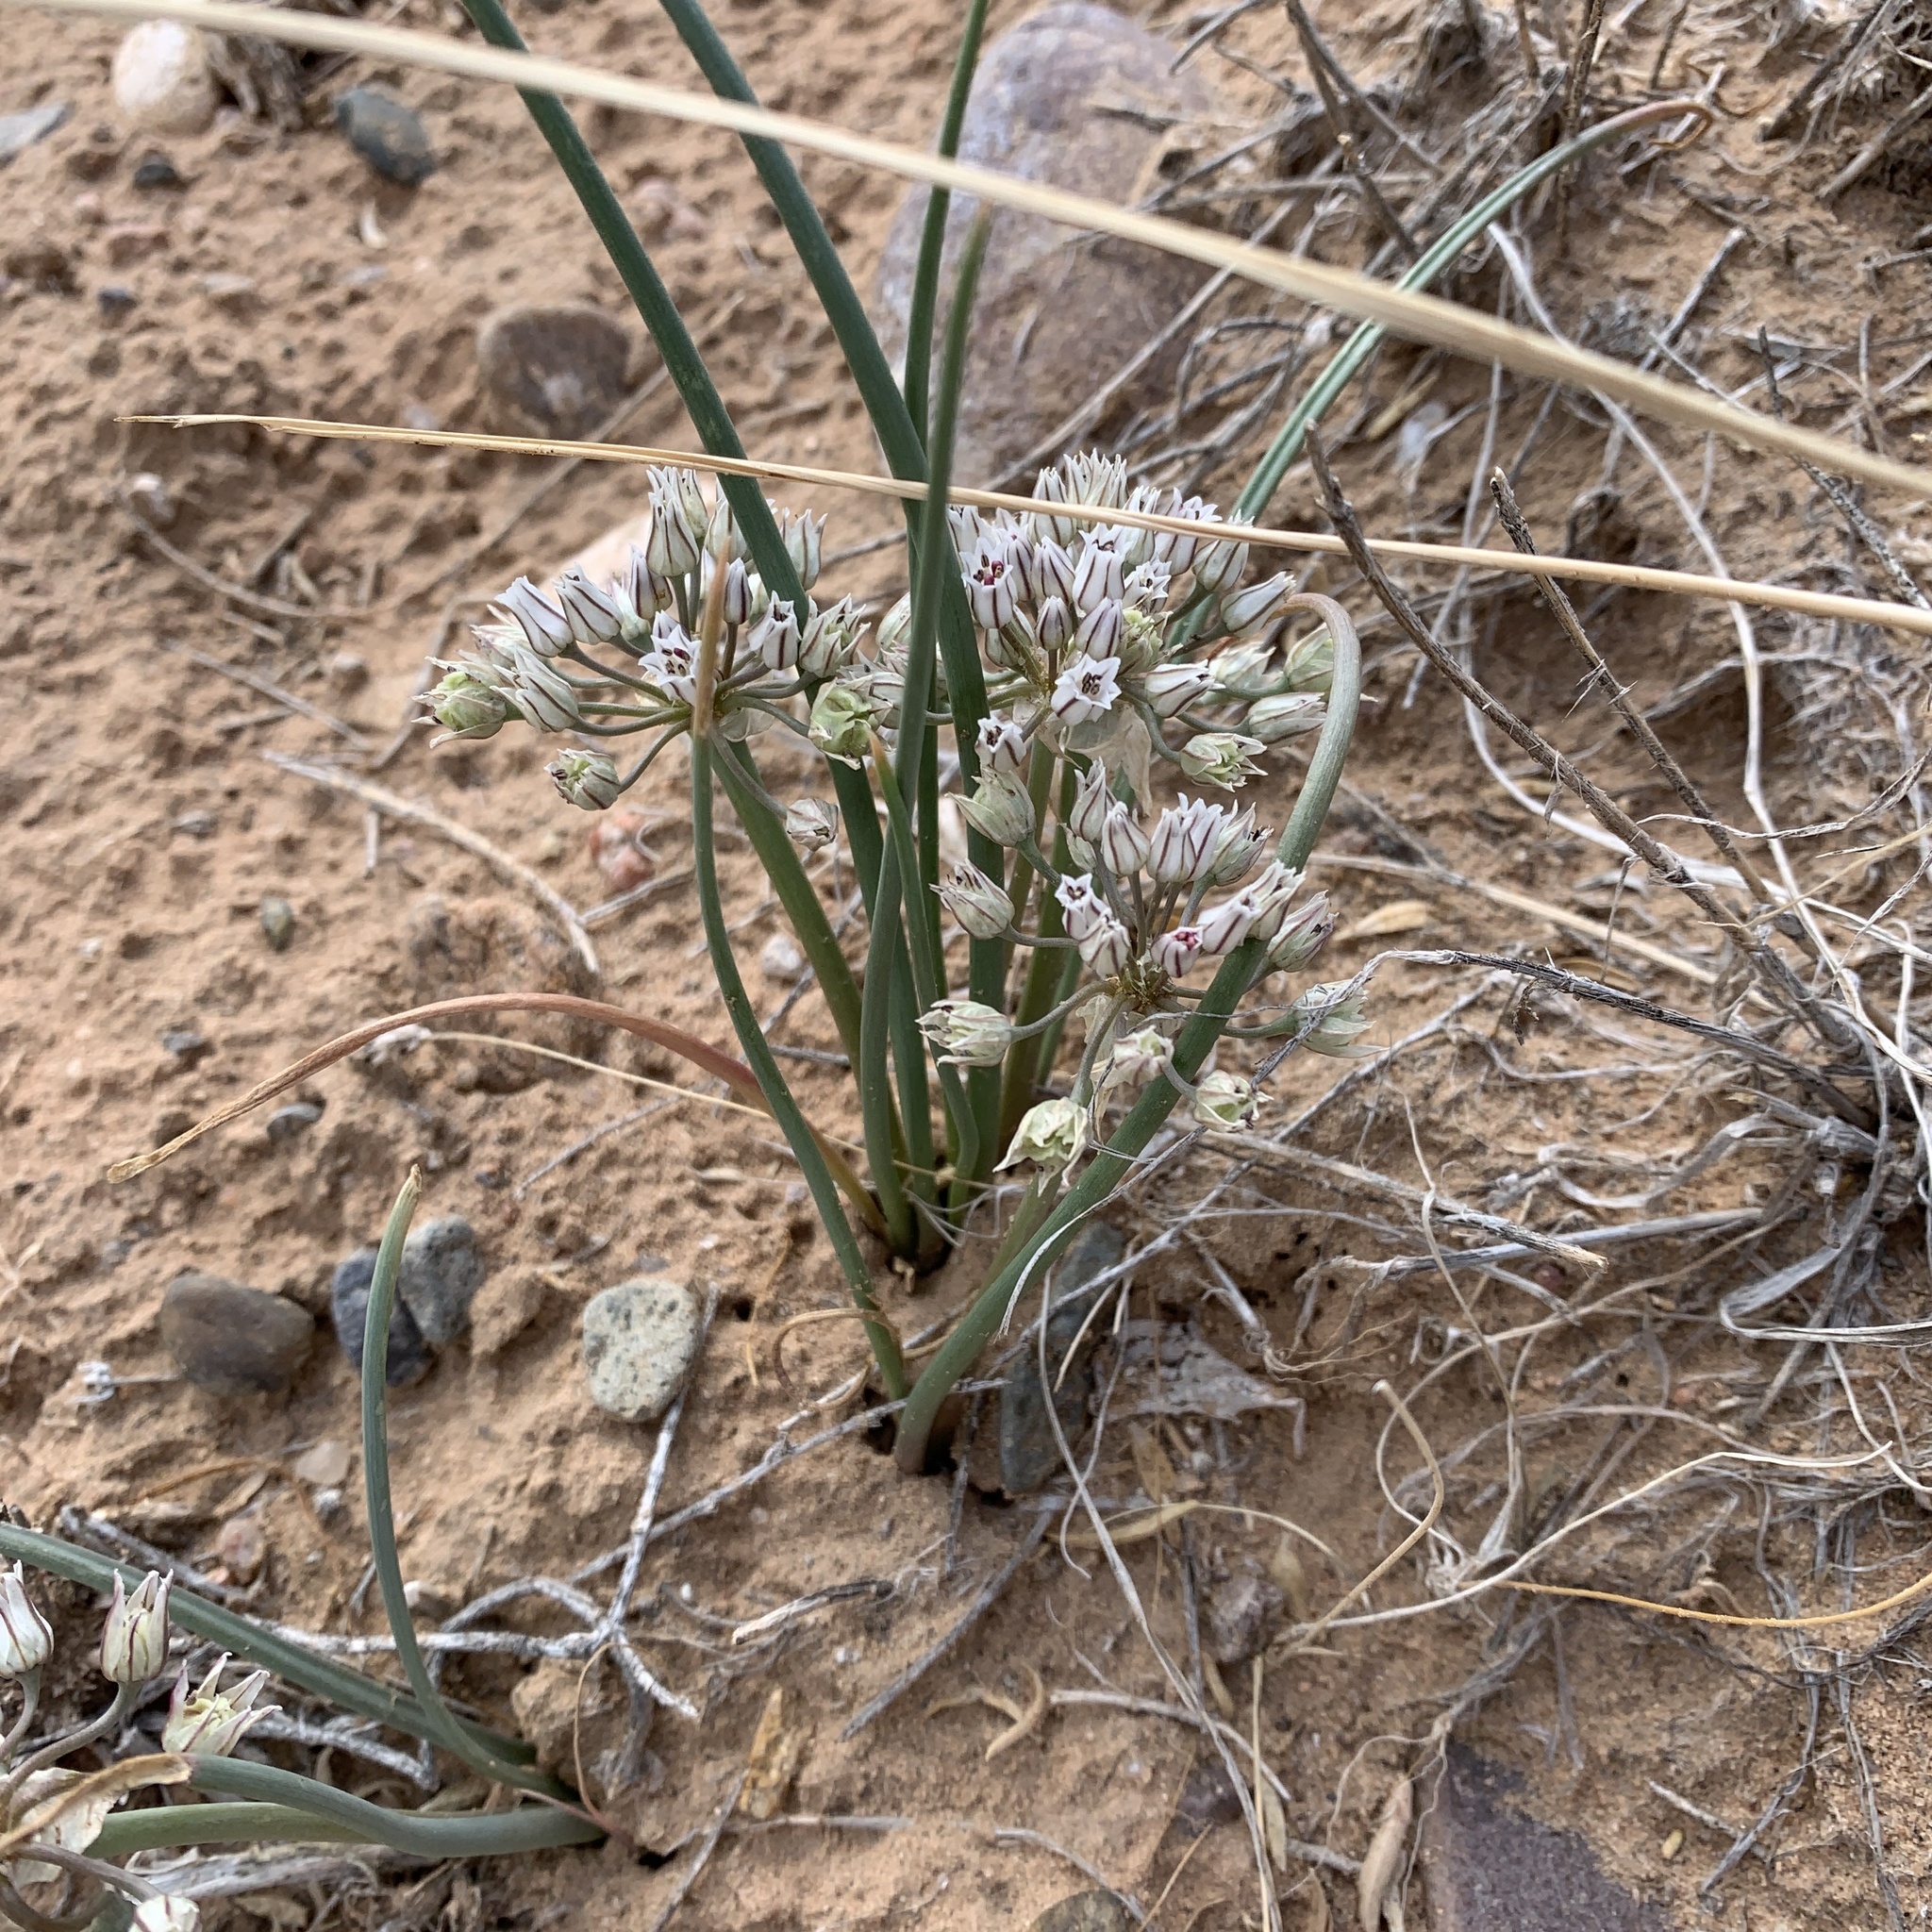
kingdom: Plantae
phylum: Tracheophyta
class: Liliopsida
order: Asparagales
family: Amaryllidaceae
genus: Allium
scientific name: Allium macropetalum
